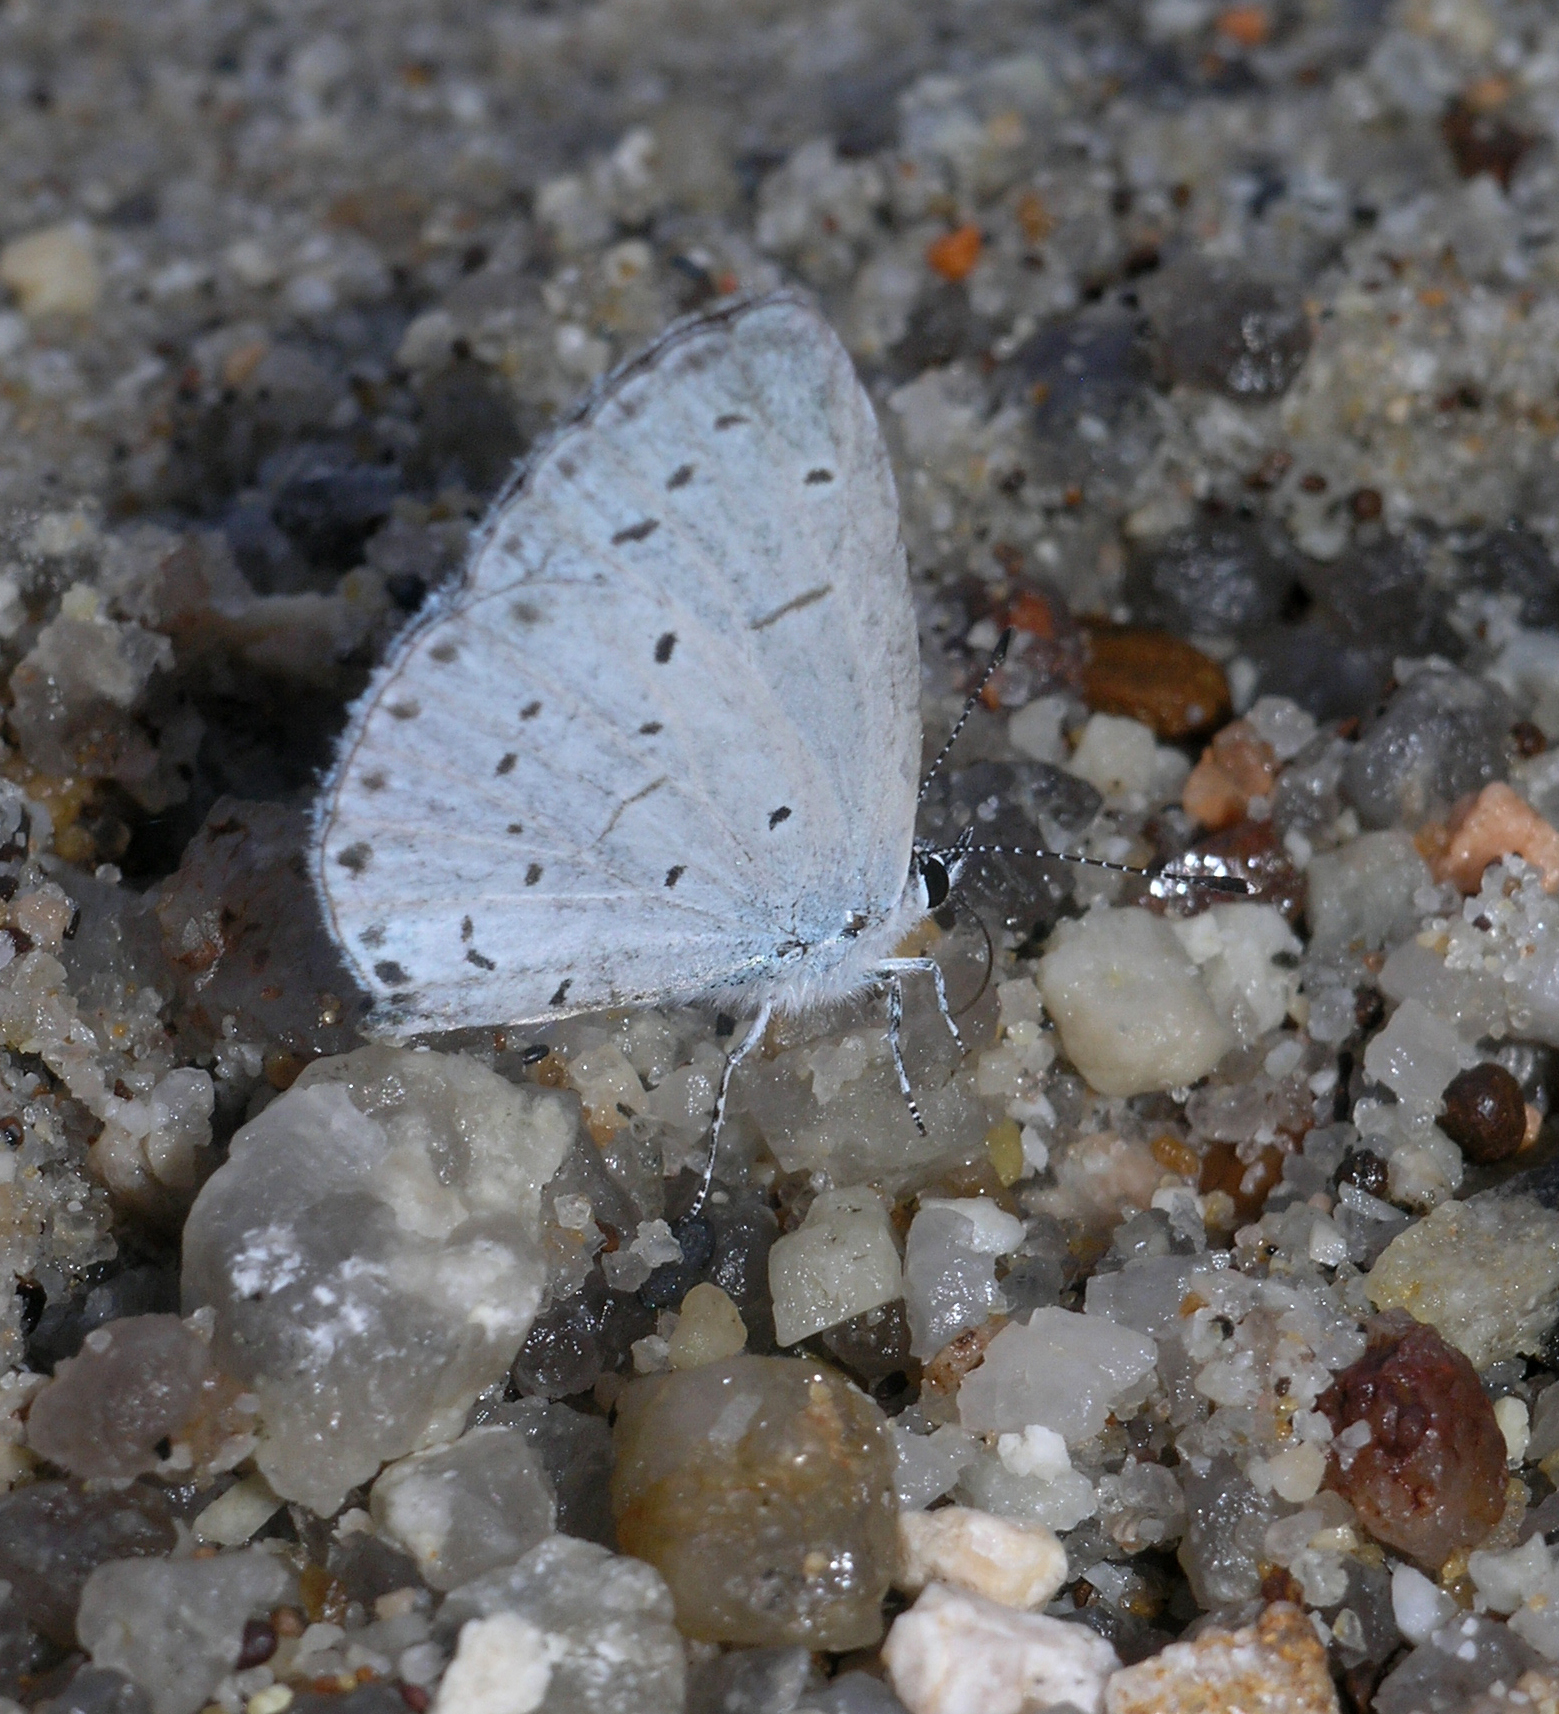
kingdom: Animalia
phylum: Arthropoda
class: Insecta
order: Lepidoptera
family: Lycaenidae
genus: Celastrina
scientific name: Celastrina argiolus
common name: Holly blue
